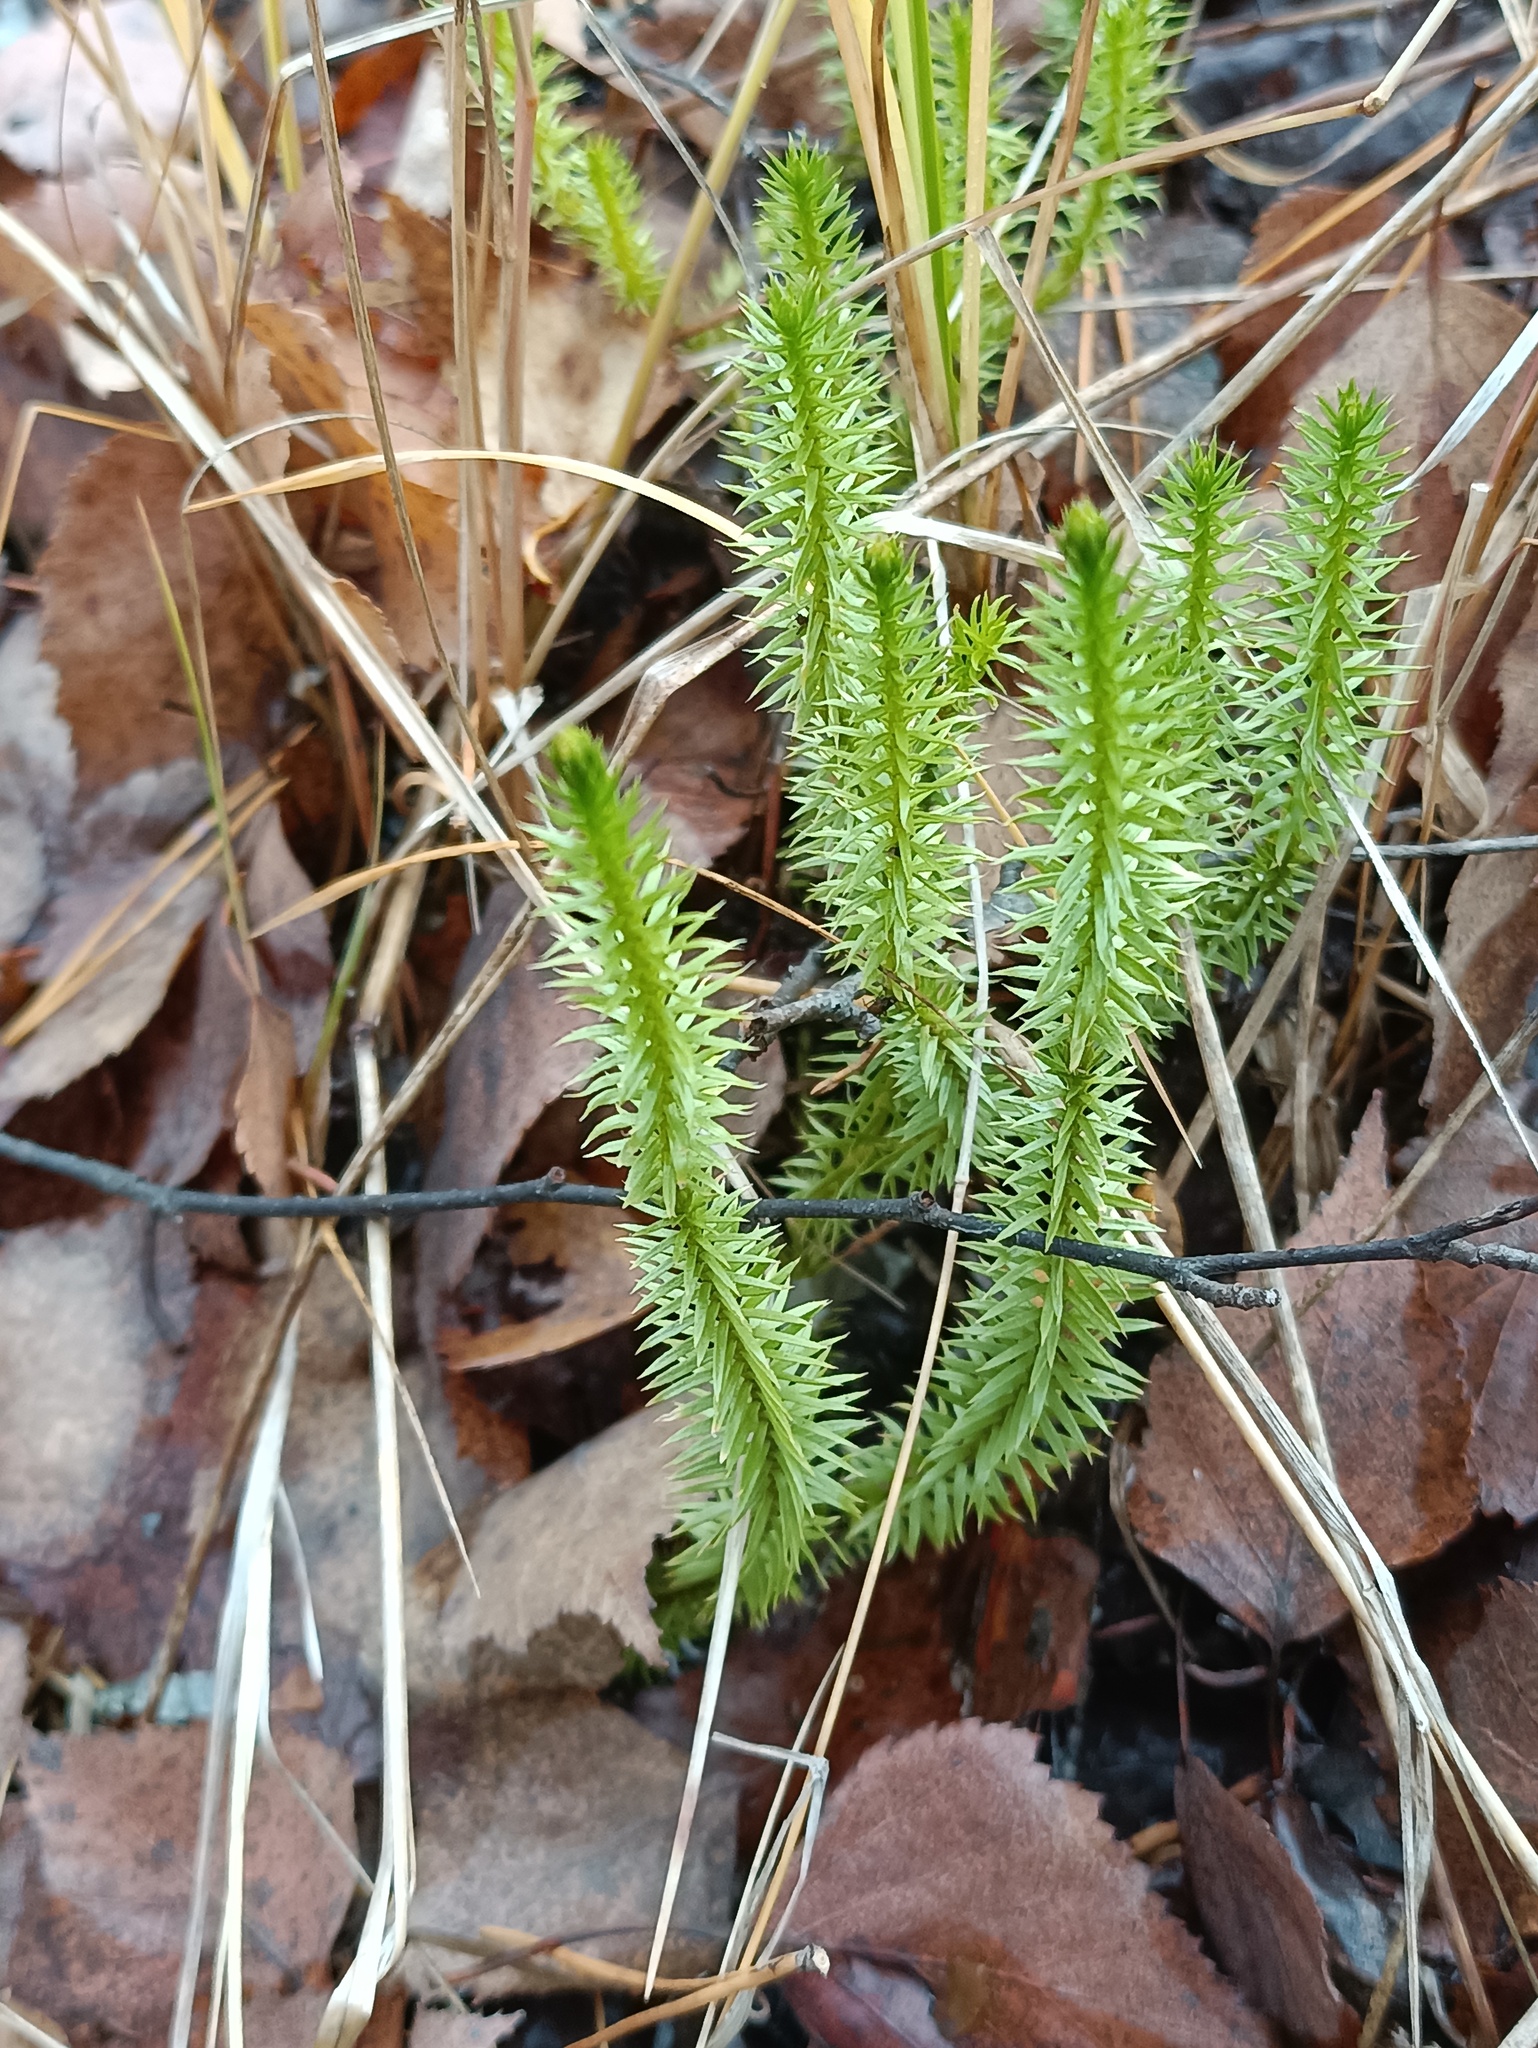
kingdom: Plantae
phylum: Tracheophyta
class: Lycopodiopsida
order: Lycopodiales
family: Lycopodiaceae
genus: Spinulum
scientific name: Spinulum annotinum
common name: Interrupted club-moss
